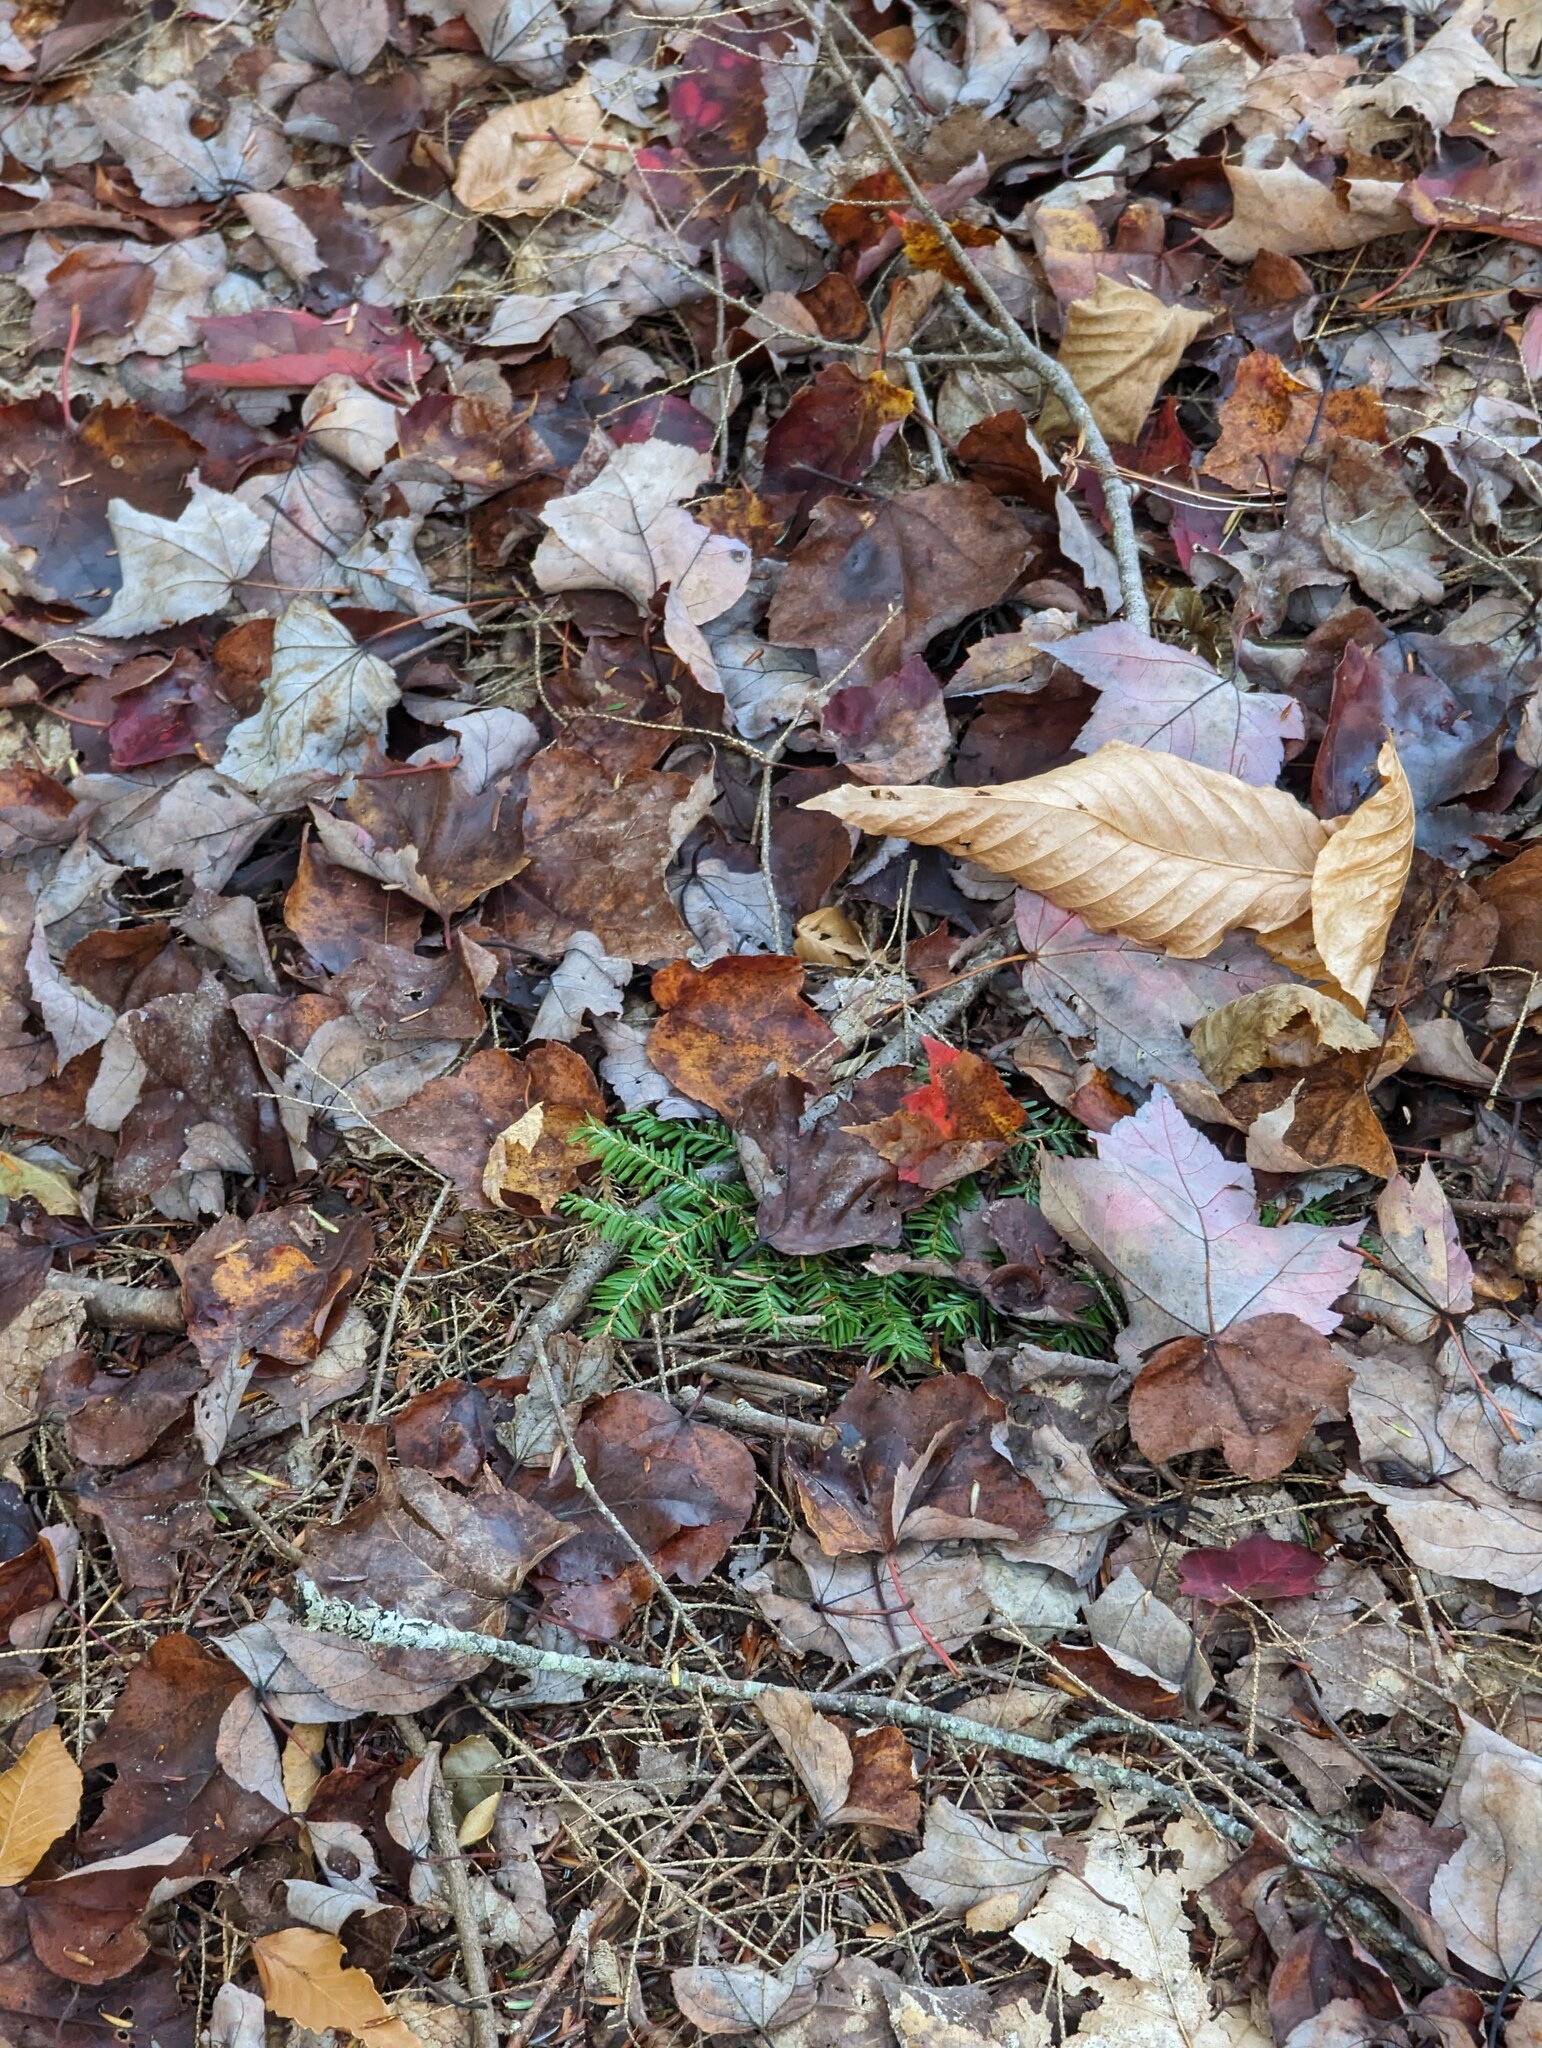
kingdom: Plantae
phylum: Tracheophyta
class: Pinopsida
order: Pinales
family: Pinaceae
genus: Tsuga
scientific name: Tsuga canadensis
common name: Eastern hemlock
